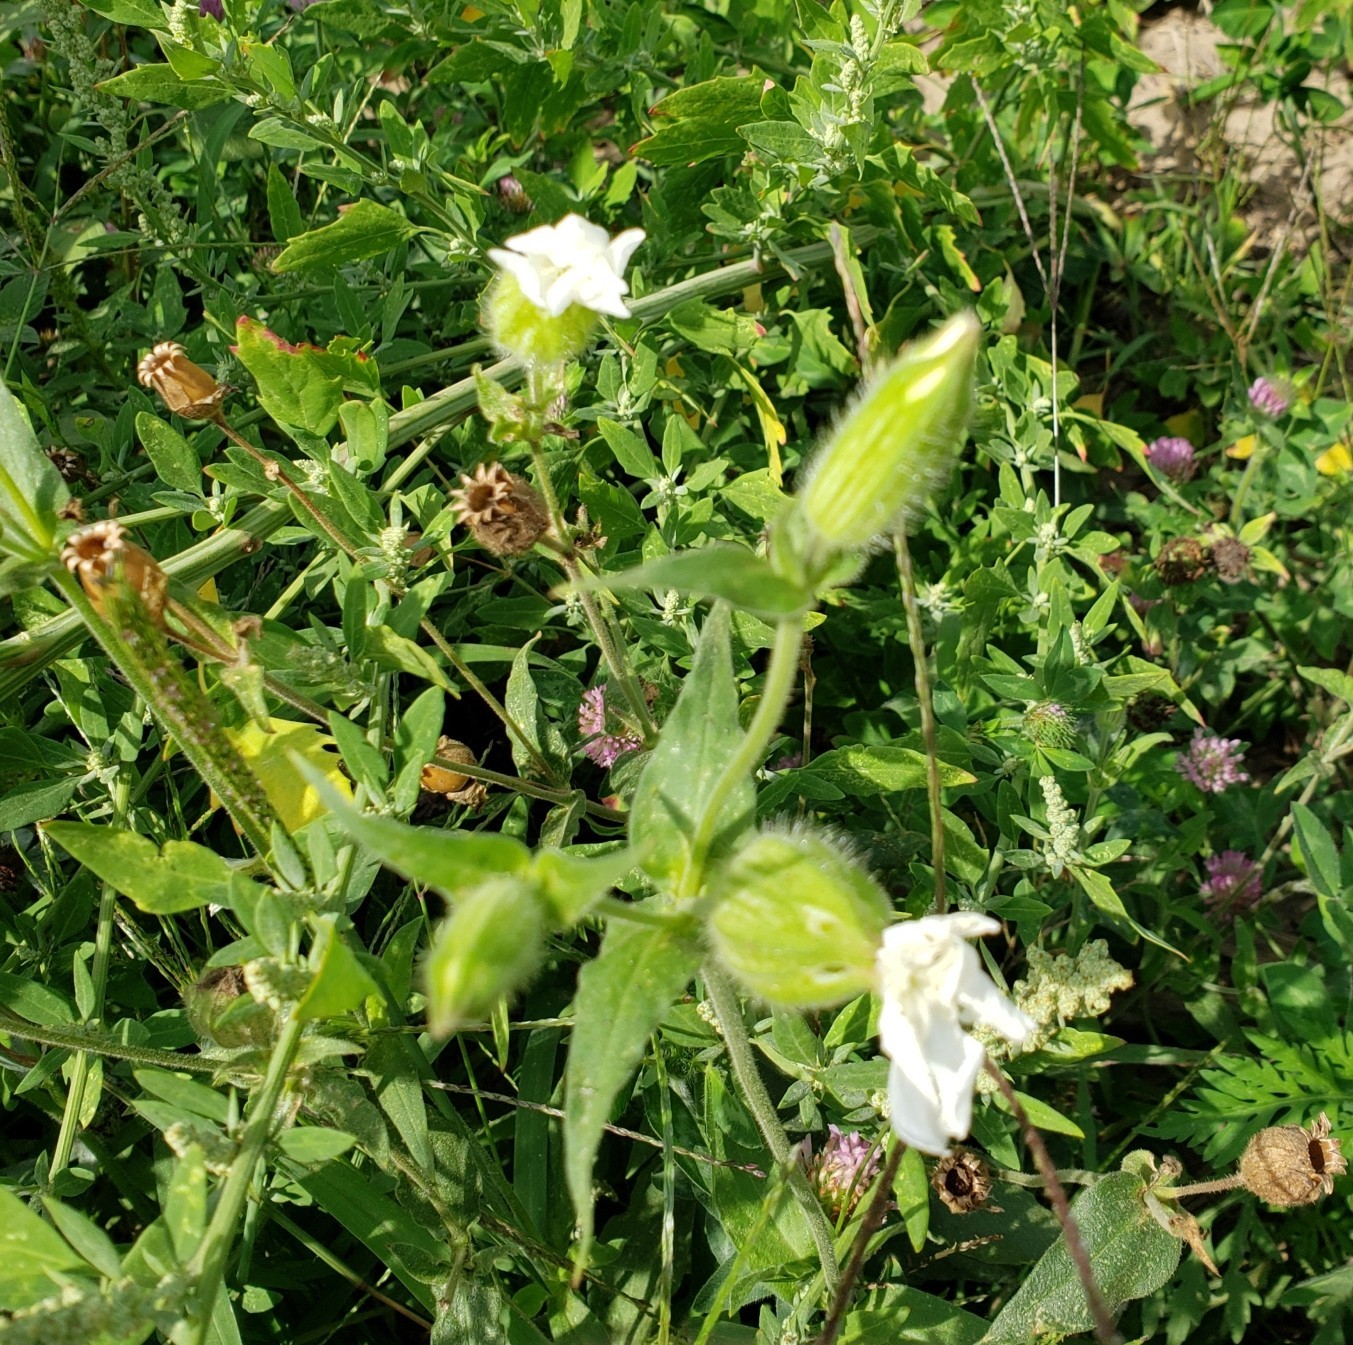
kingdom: Plantae
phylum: Tracheophyta
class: Magnoliopsida
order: Caryophyllales
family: Caryophyllaceae
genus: Silene
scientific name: Silene latifolia
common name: White campion
